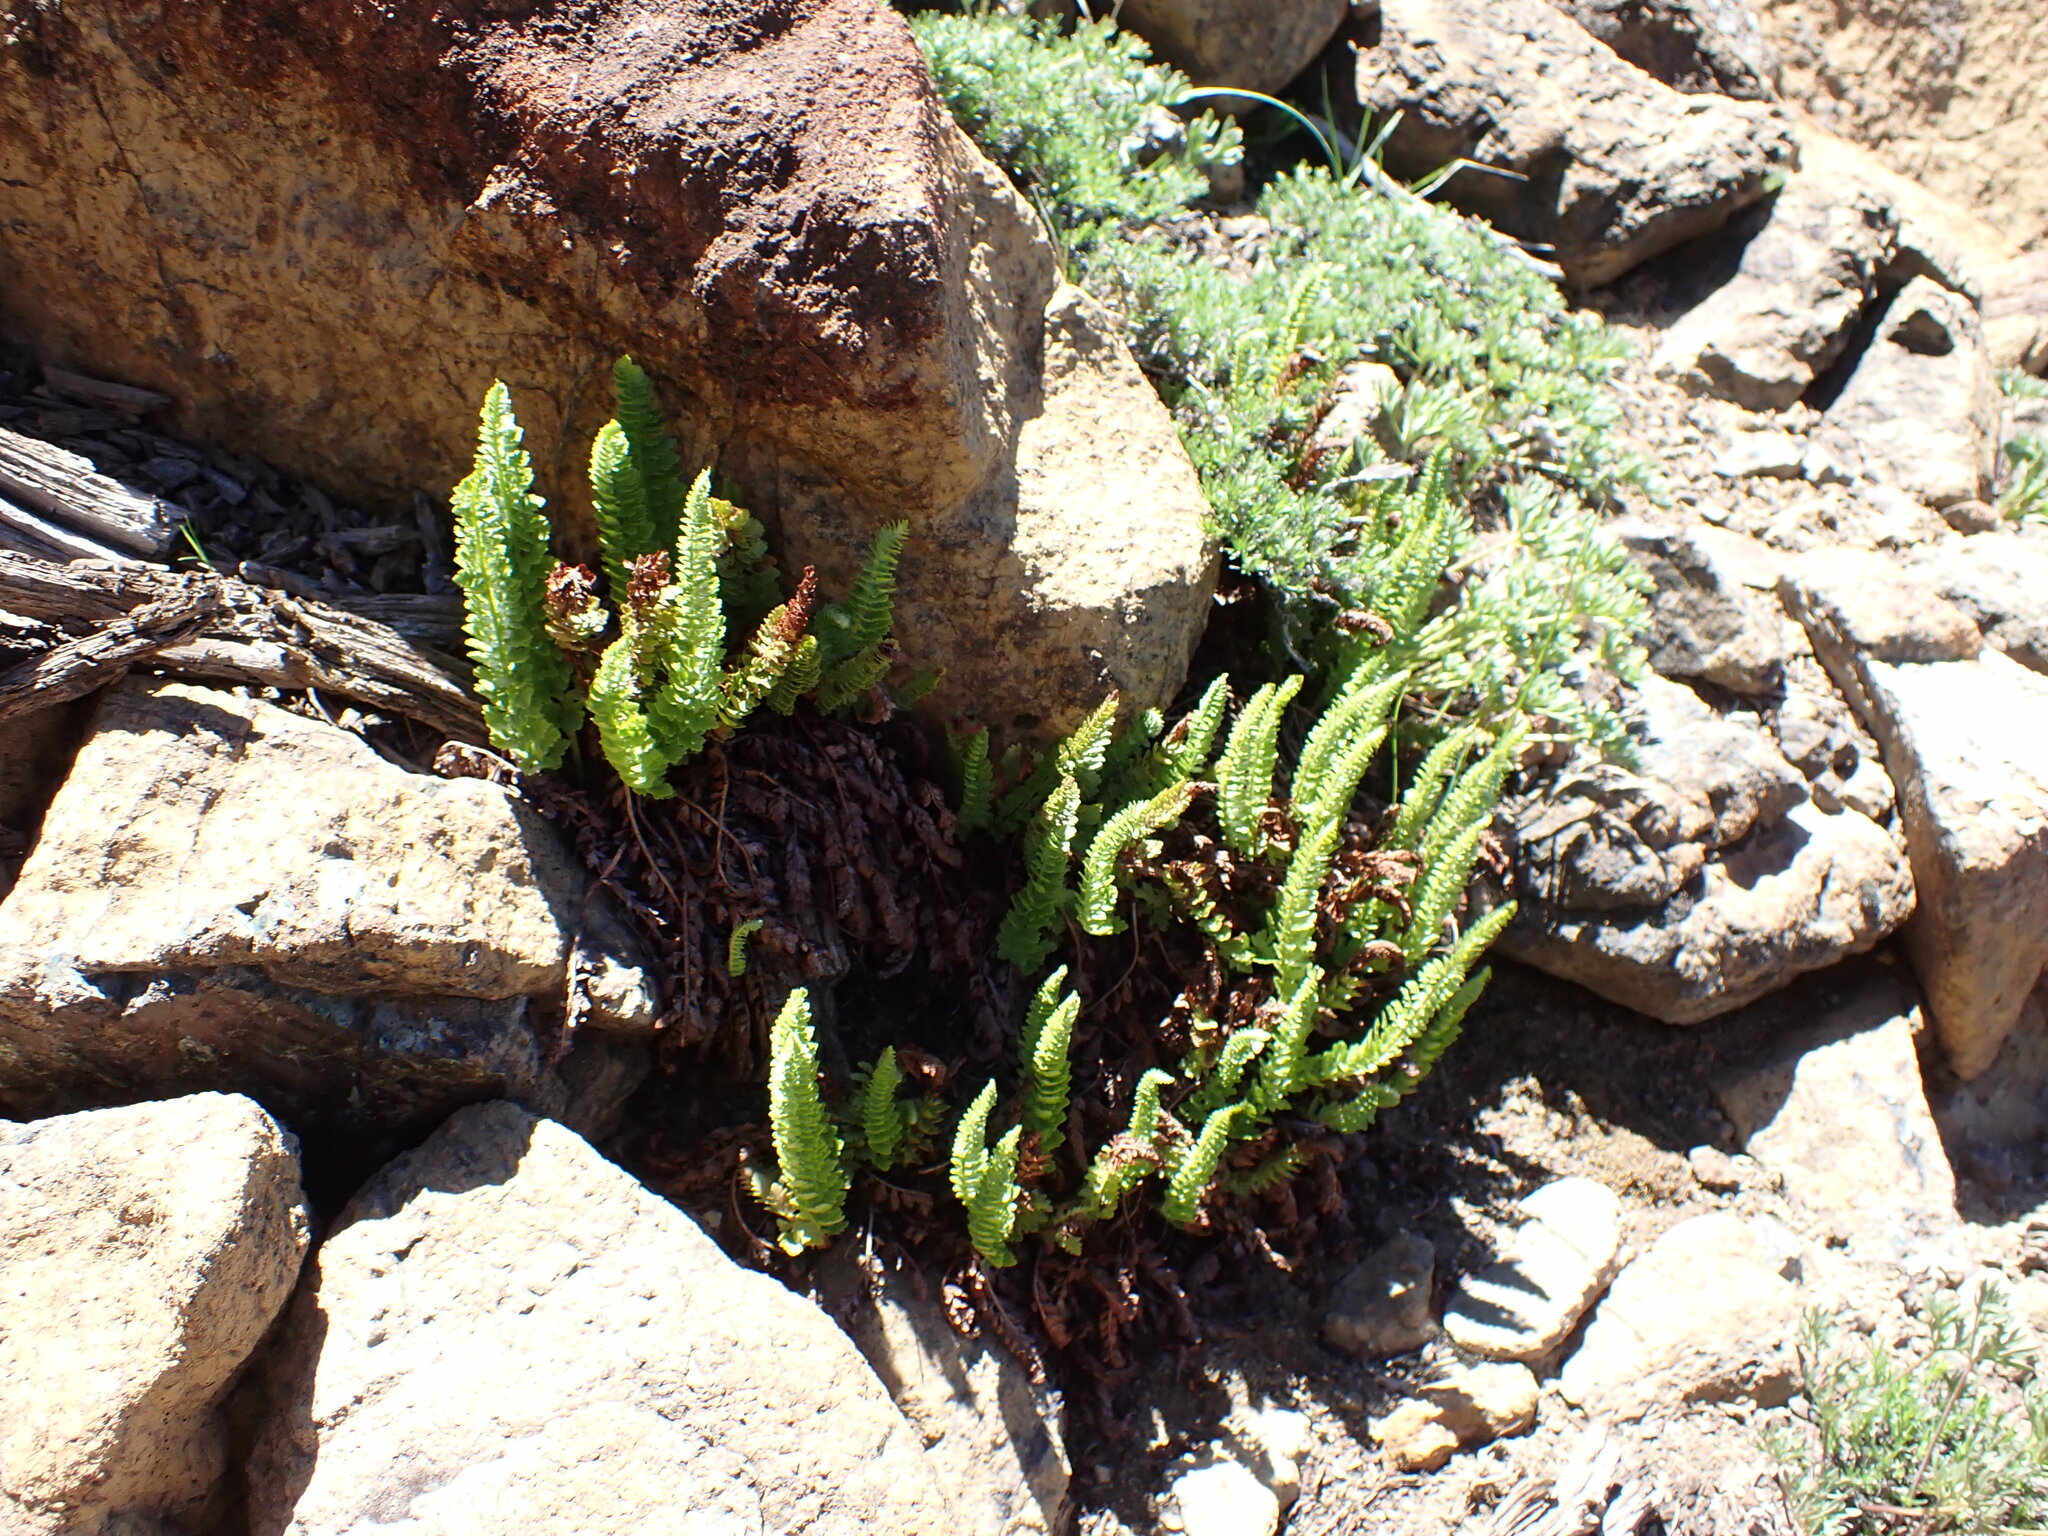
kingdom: Plantae
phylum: Tracheophyta
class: Polypodiopsida
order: Polypodiales
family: Dryopteridaceae
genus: Polystichum
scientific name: Polystichum lemmonii
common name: Lemmon's holly fern
